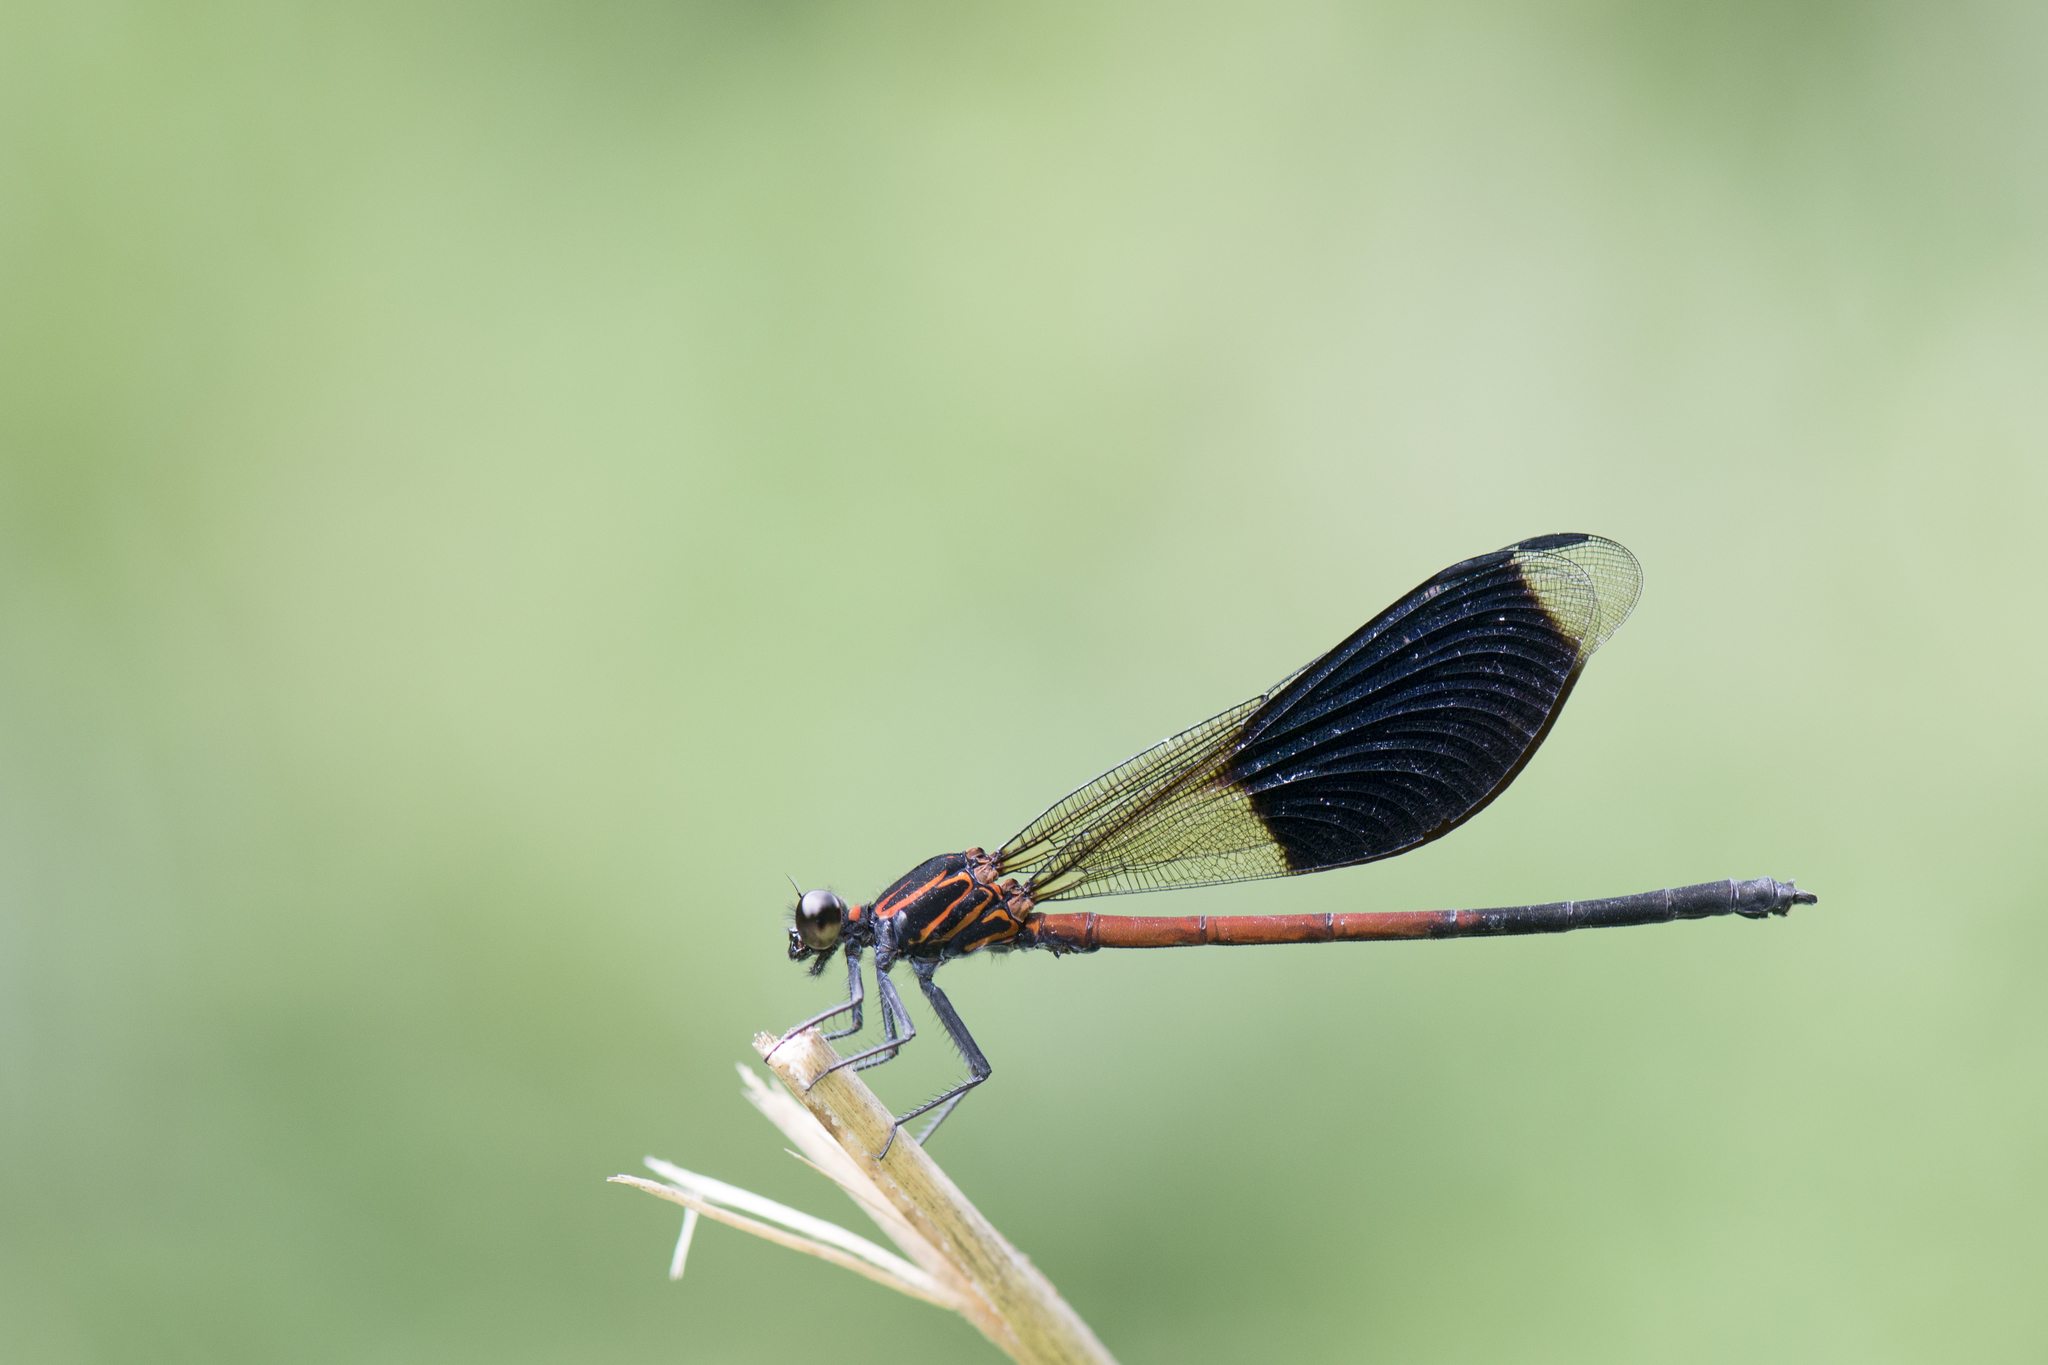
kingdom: Animalia
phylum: Arthropoda
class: Insecta
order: Odonata
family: Euphaeidae
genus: Euphaea
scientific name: Euphaea formosa
